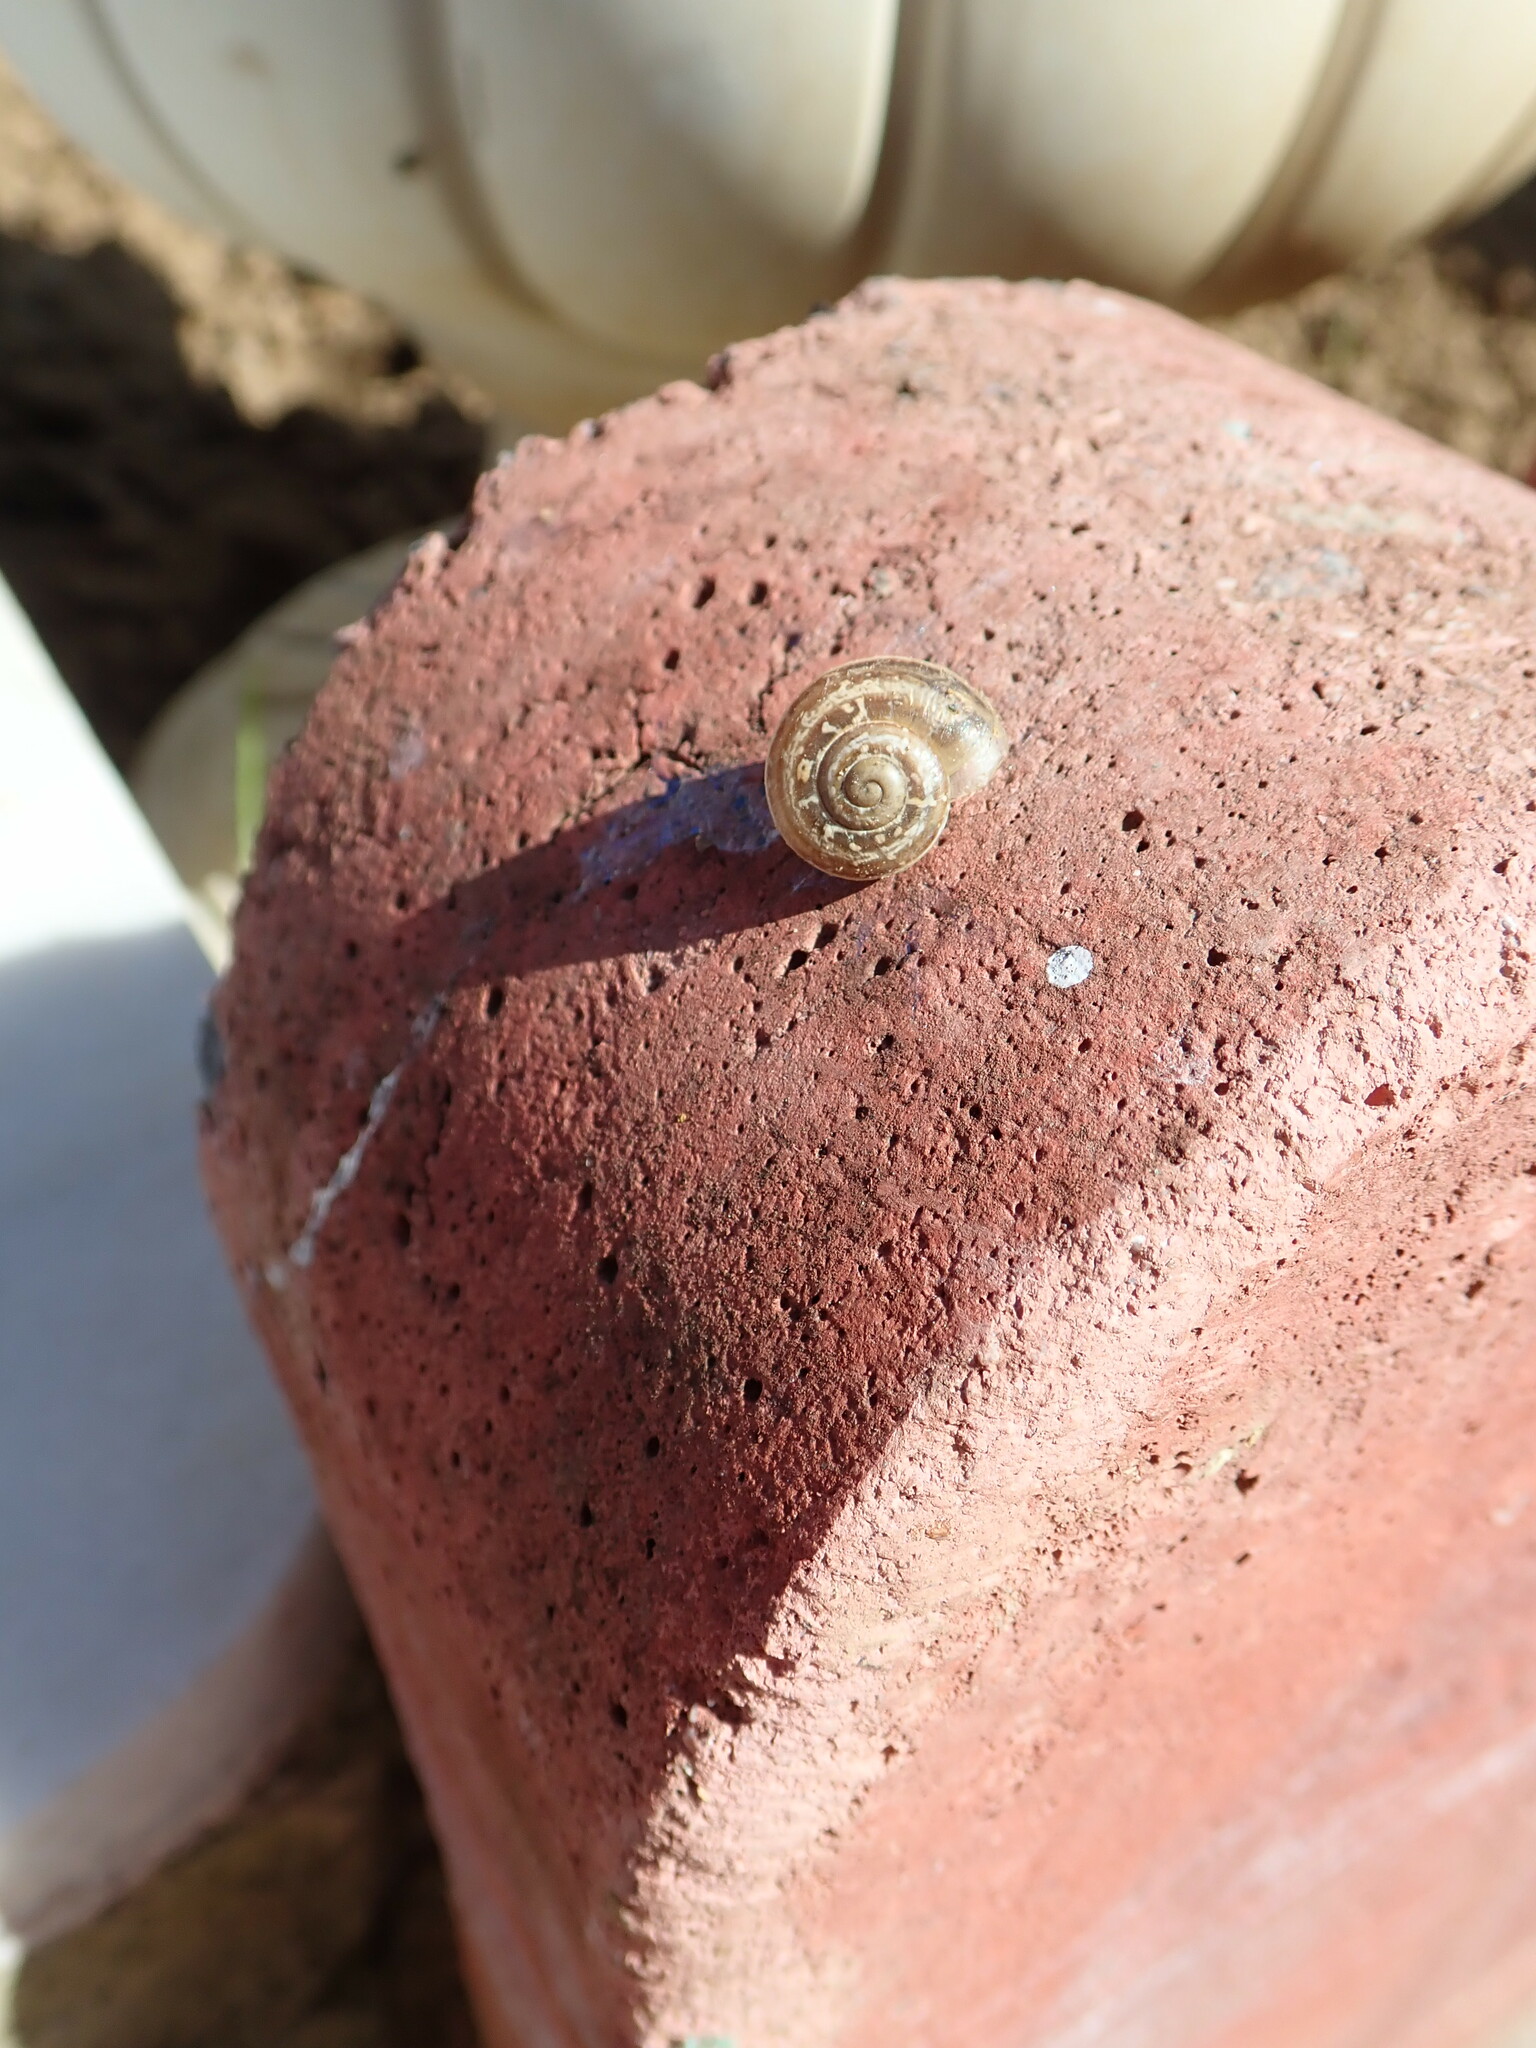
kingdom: Animalia
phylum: Mollusca
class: Gastropoda
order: Stylommatophora
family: Helicidae
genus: Eobania
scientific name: Eobania vermiculata
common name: Chocolateband snail
